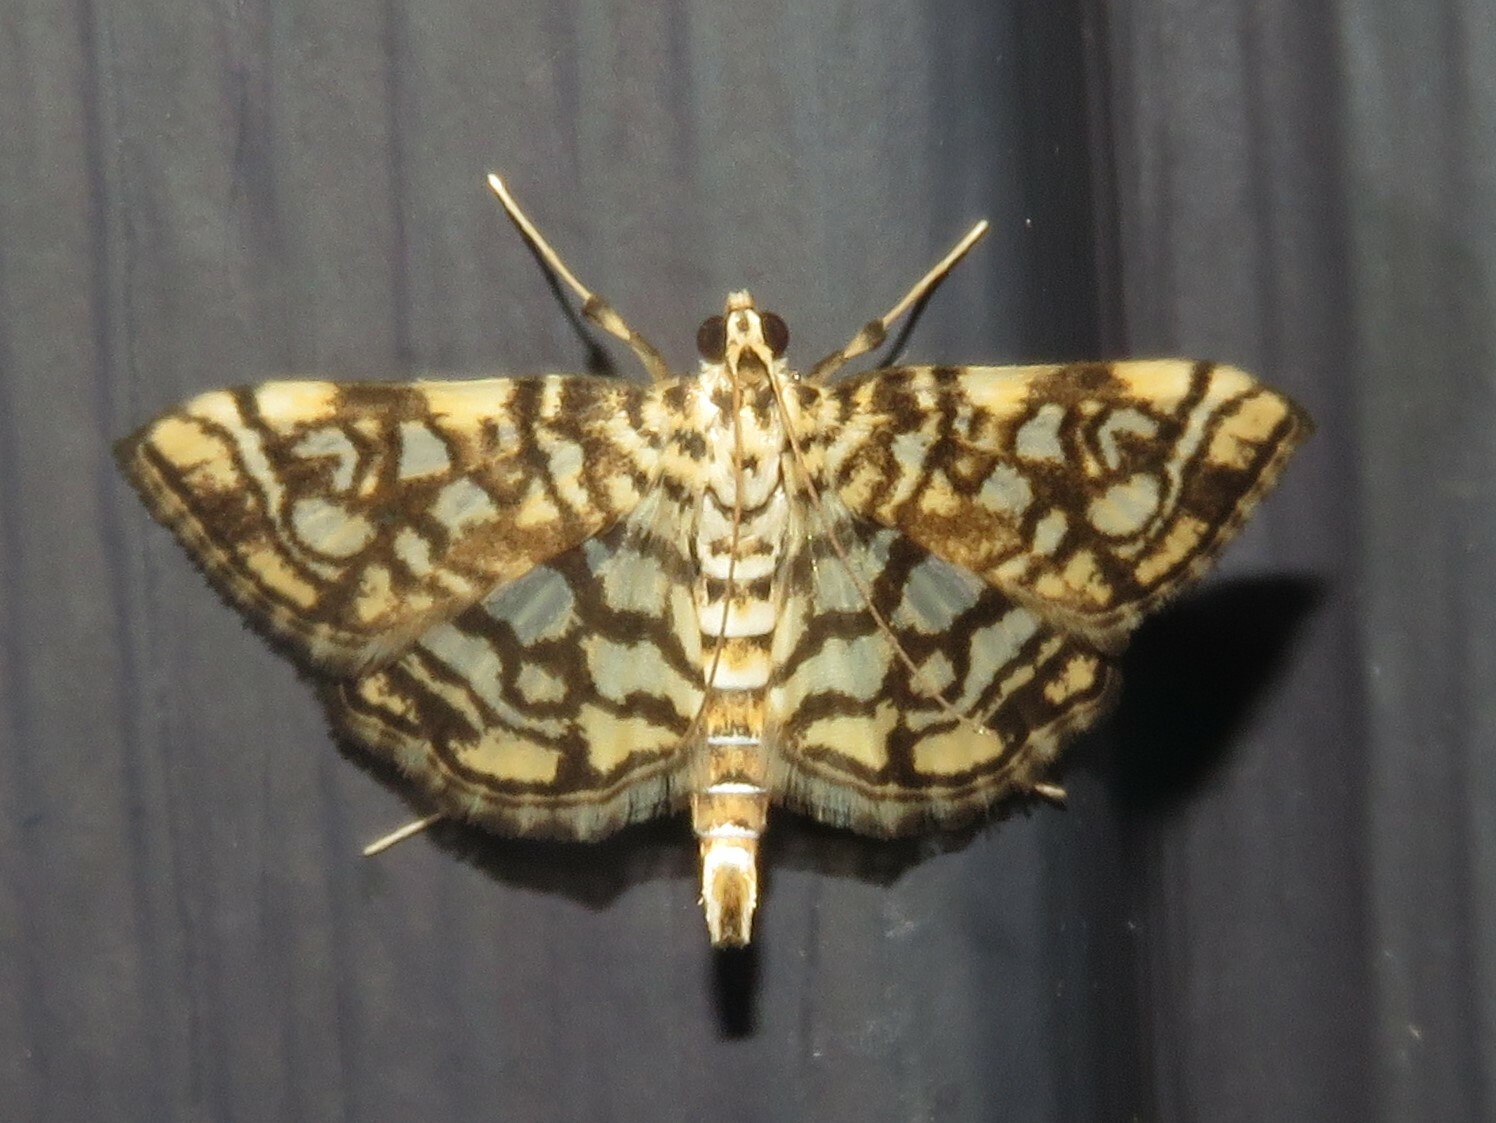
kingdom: Animalia
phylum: Arthropoda
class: Insecta
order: Lepidoptera
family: Crambidae
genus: Lygropia
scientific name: Lygropia rivulalis
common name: Bog lygropia moth
